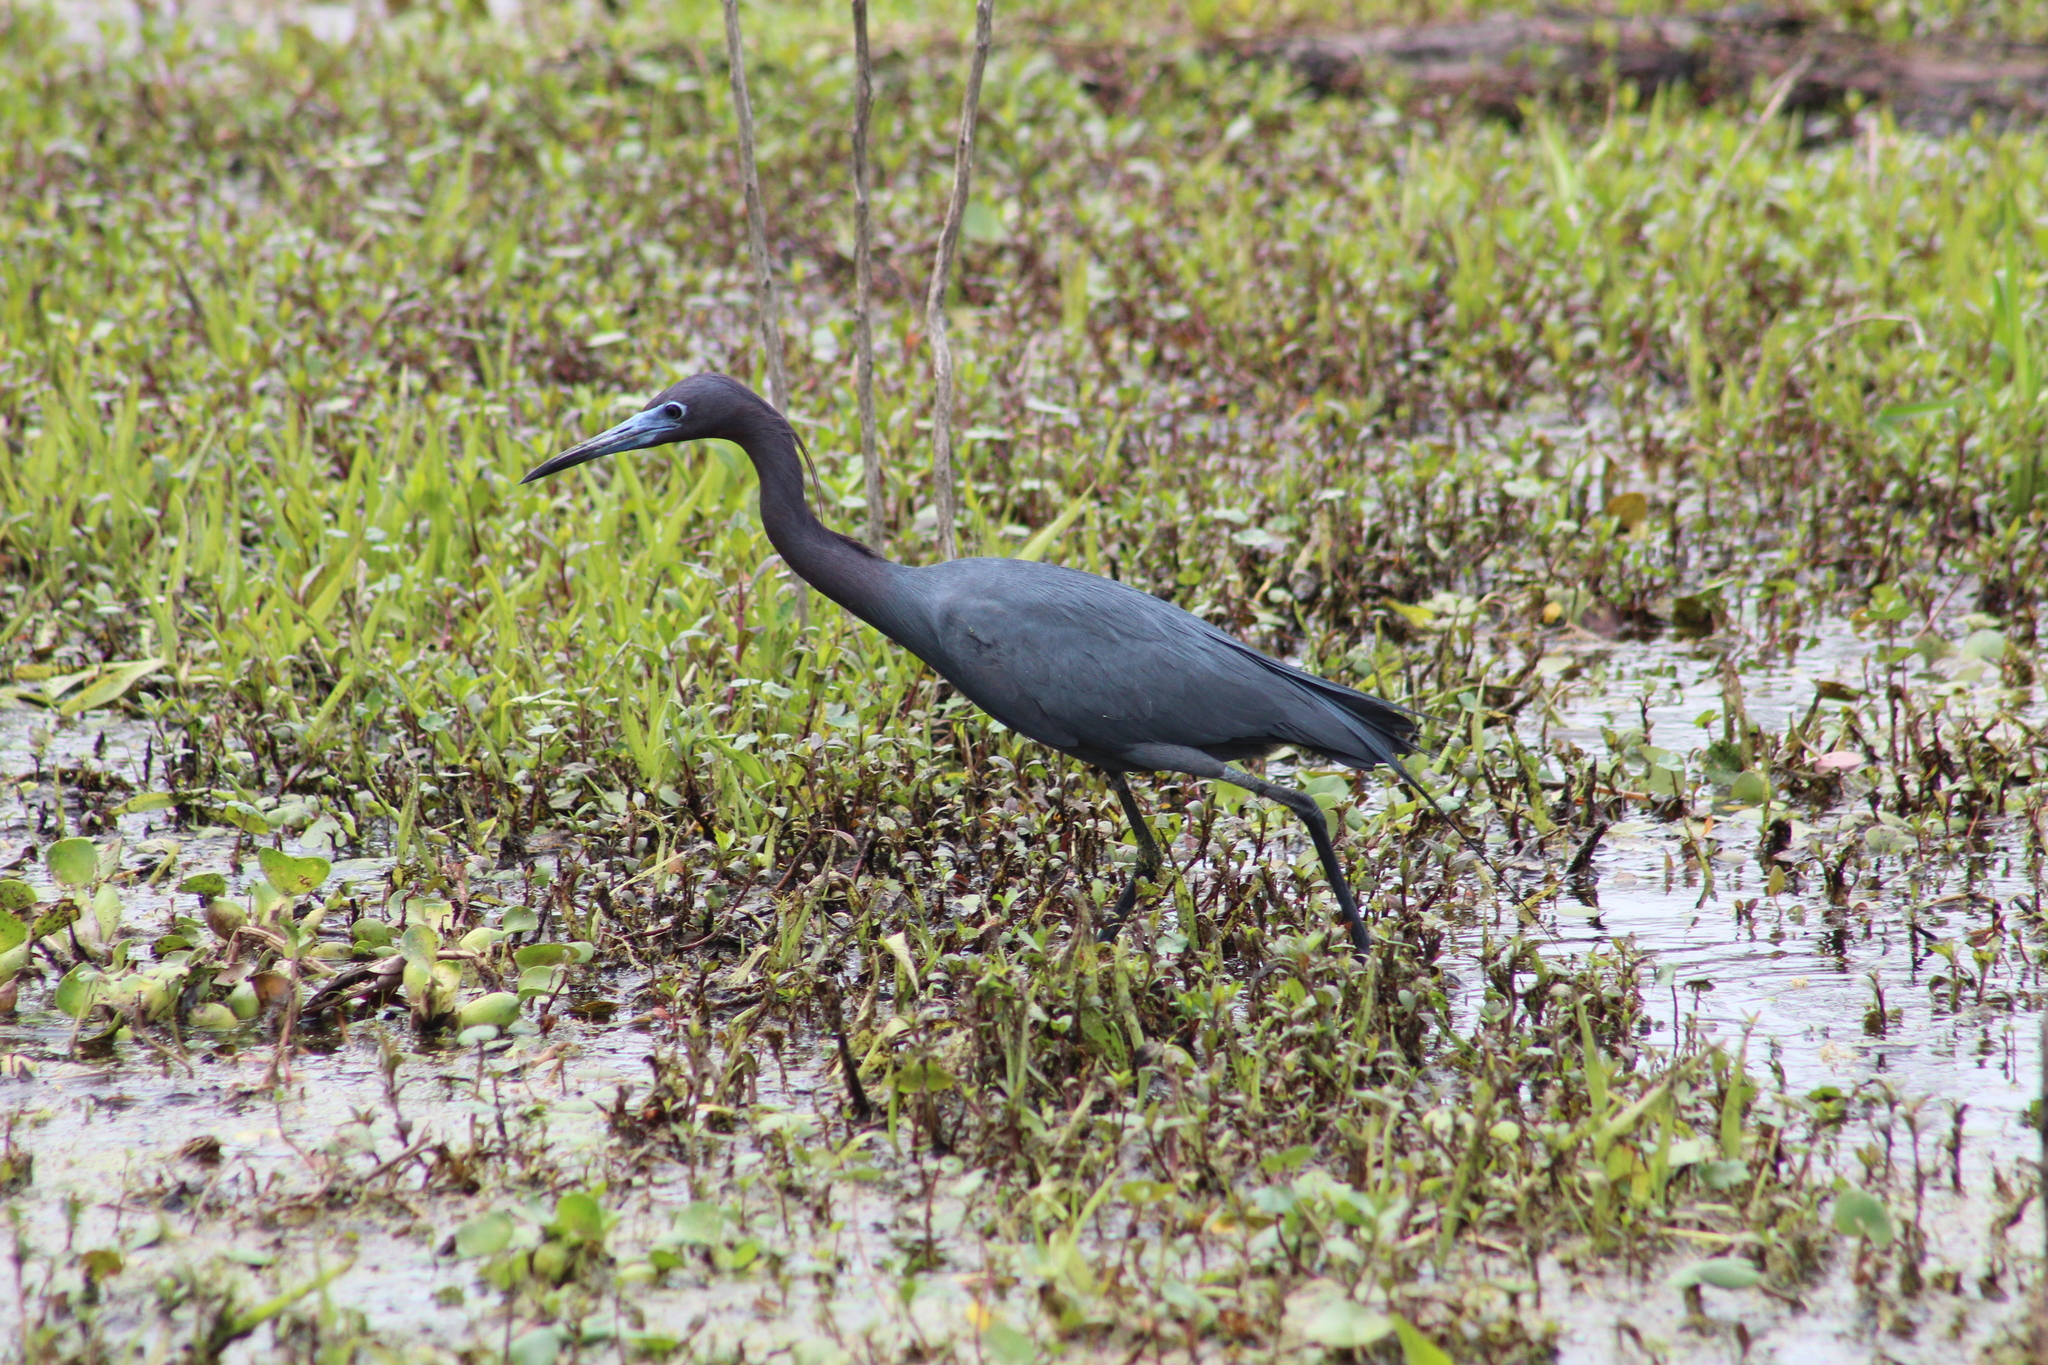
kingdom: Animalia
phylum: Chordata
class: Aves
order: Pelecaniformes
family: Ardeidae
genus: Egretta
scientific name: Egretta caerulea
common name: Little blue heron
